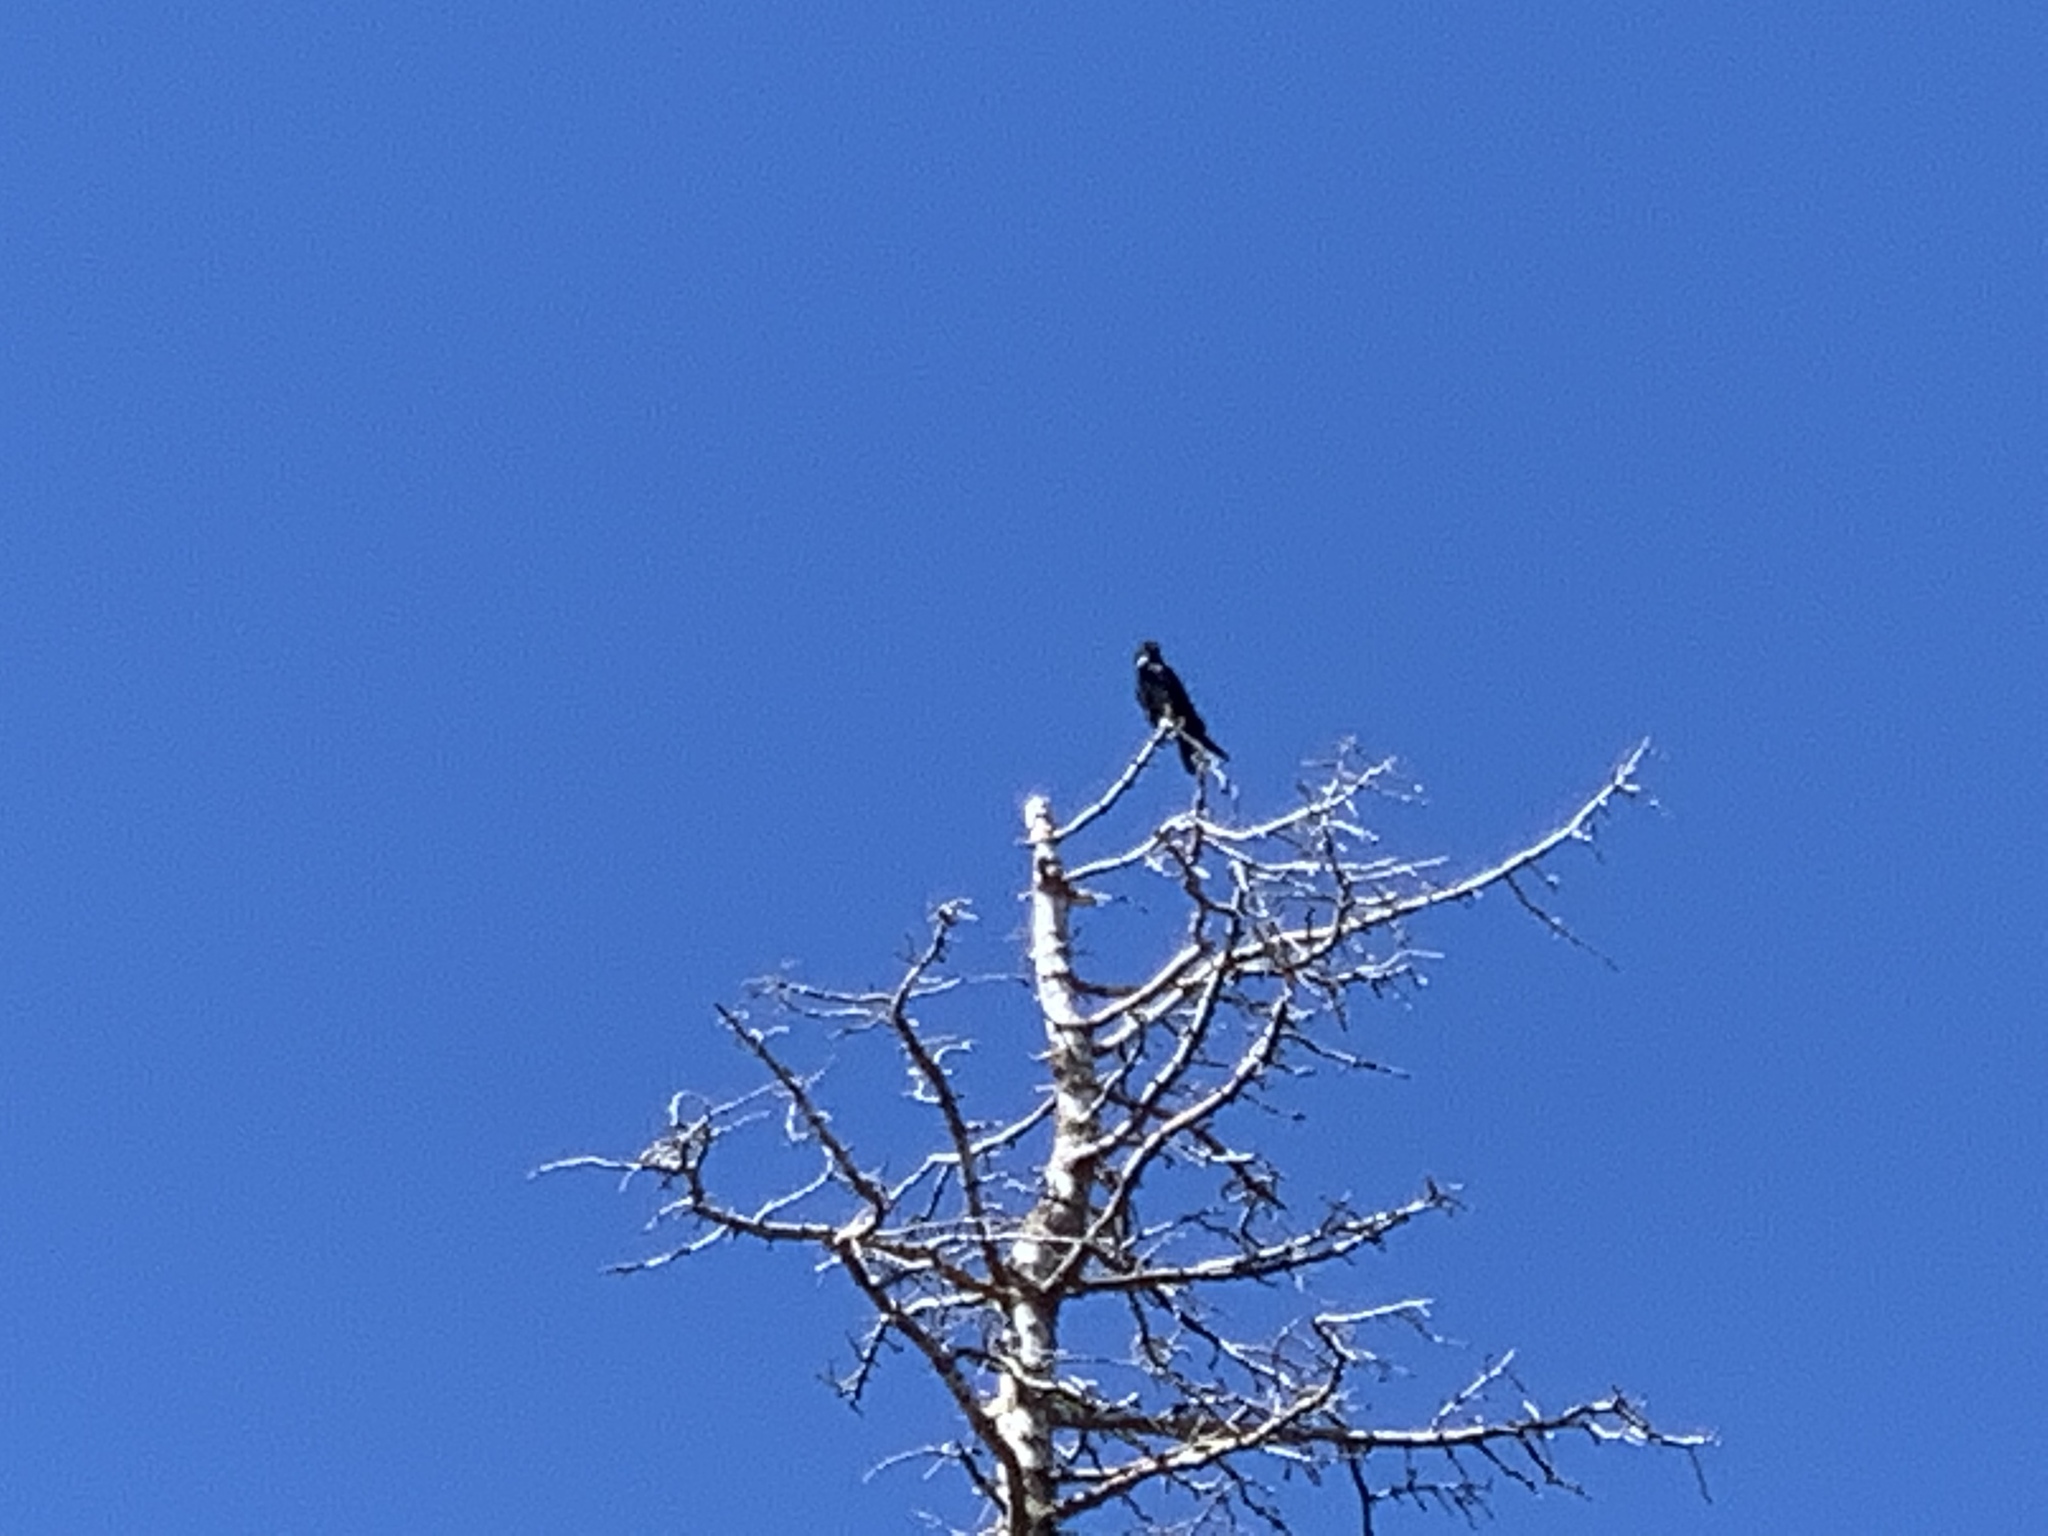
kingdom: Animalia
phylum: Chordata
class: Aves
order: Passeriformes
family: Corvidae
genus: Corvus
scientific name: Corvus cryptoleucus
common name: Chihuahuan raven
